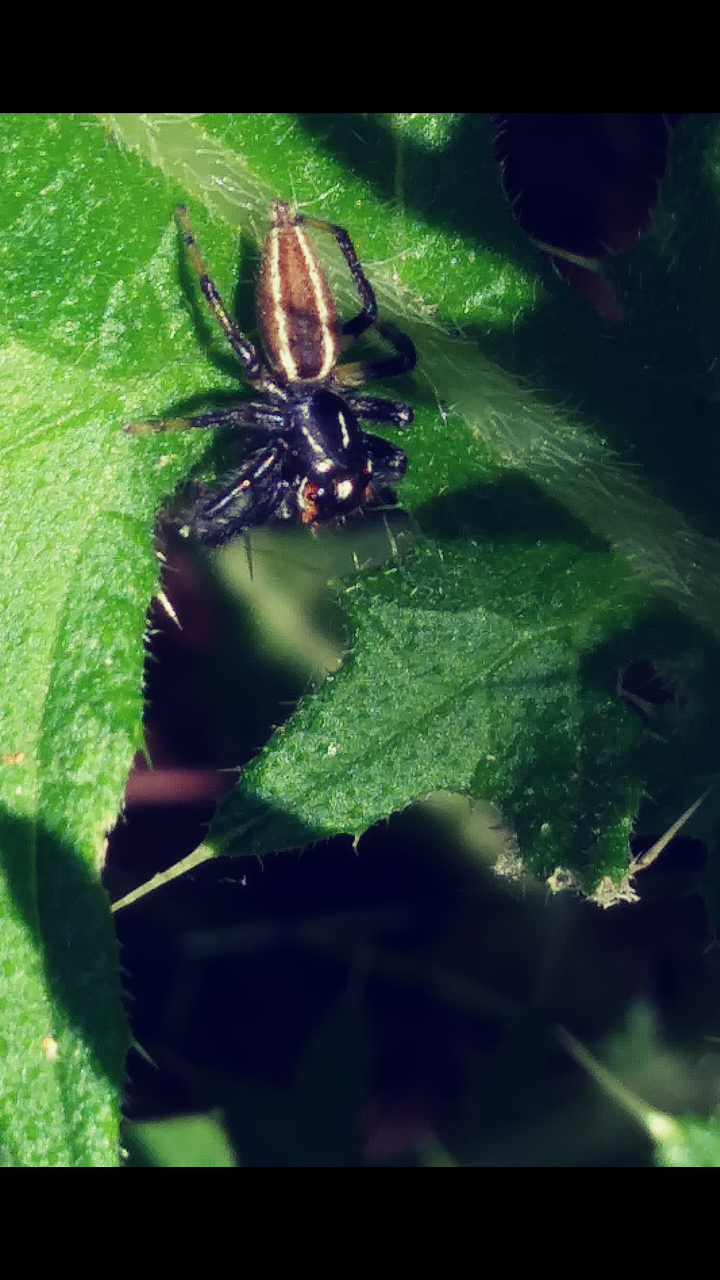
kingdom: Animalia
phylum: Arthropoda
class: Arachnida
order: Araneae
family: Salticidae
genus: Colonus
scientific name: Colonus sylvanus
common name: Jumping spiders
